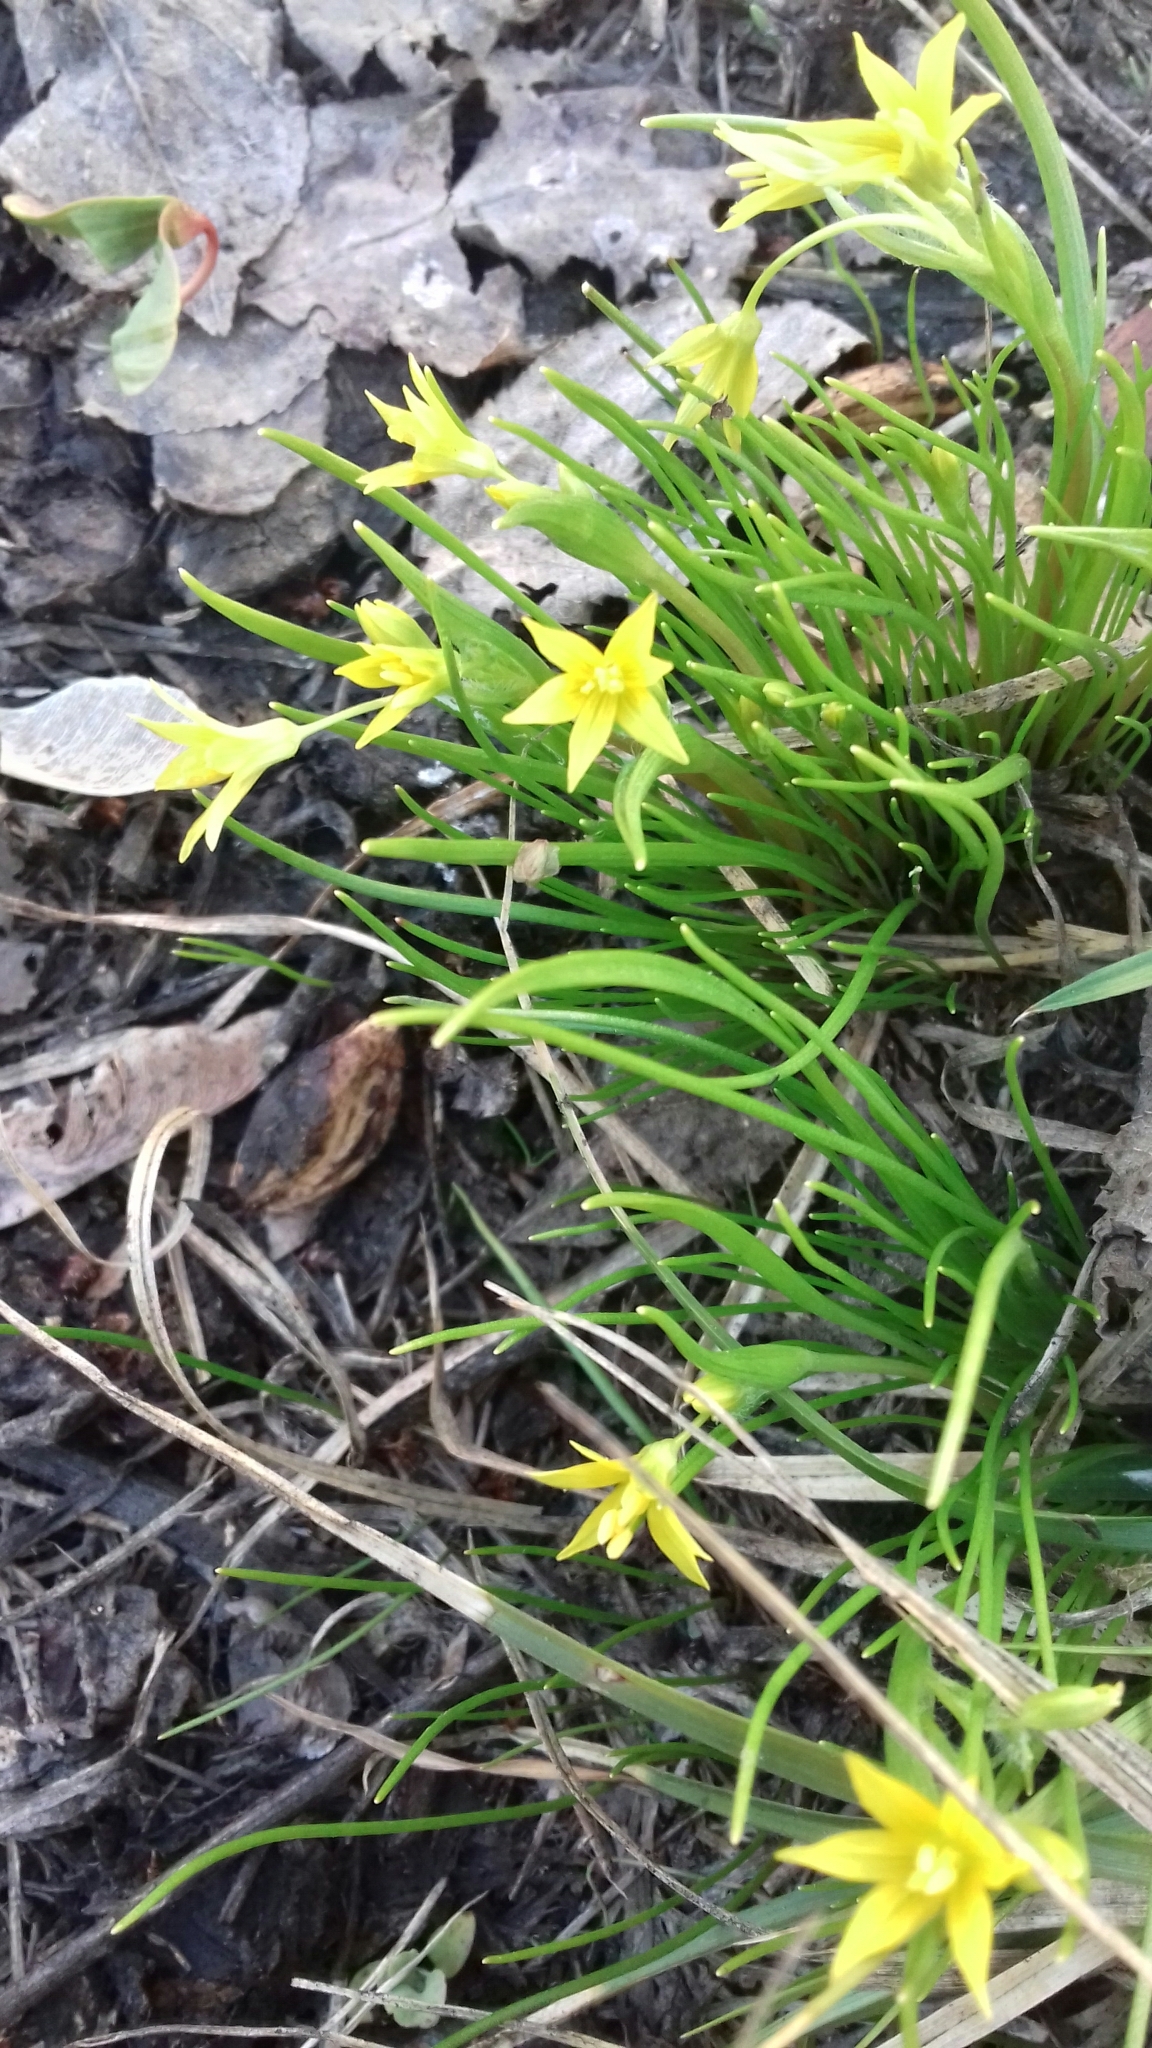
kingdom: Plantae
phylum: Tracheophyta
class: Liliopsida
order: Liliales
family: Liliaceae
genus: Gagea
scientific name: Gagea minima
